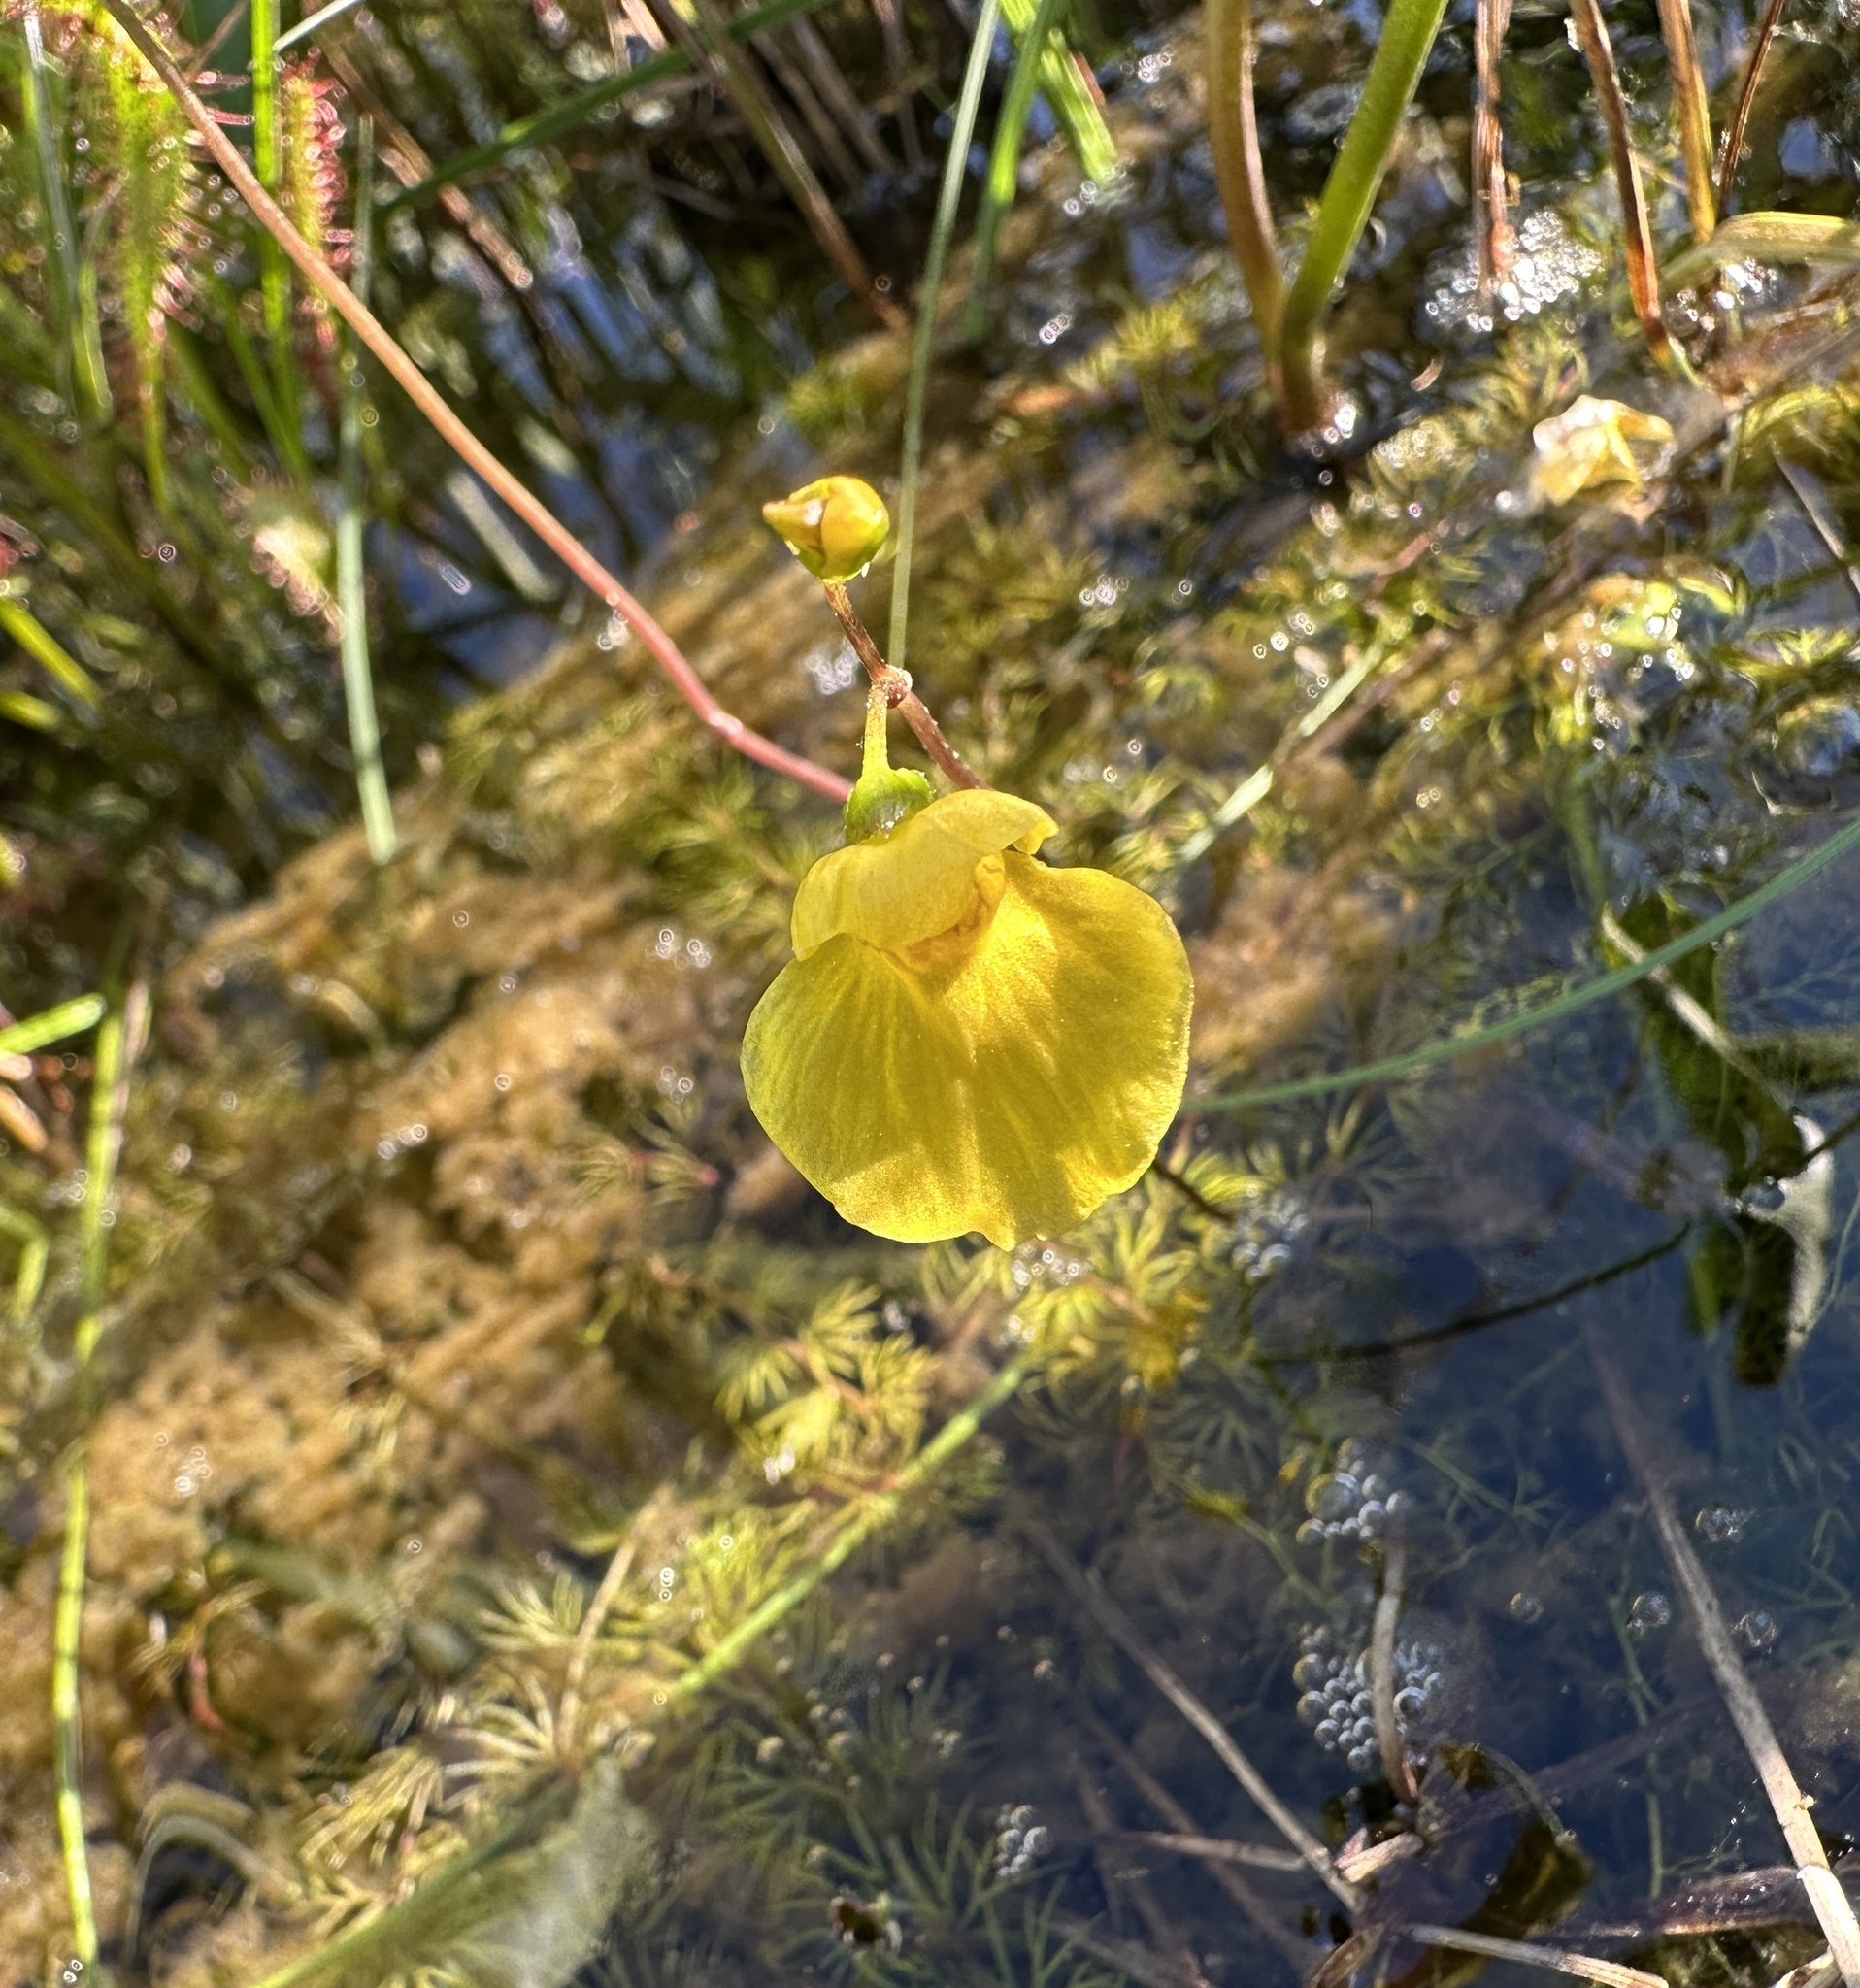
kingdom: Plantae
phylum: Tracheophyta
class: Magnoliopsida
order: Lamiales
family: Lentibulariaceae
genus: Utricularia
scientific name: Utricularia intermedia
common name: Intermediate bladderwort
